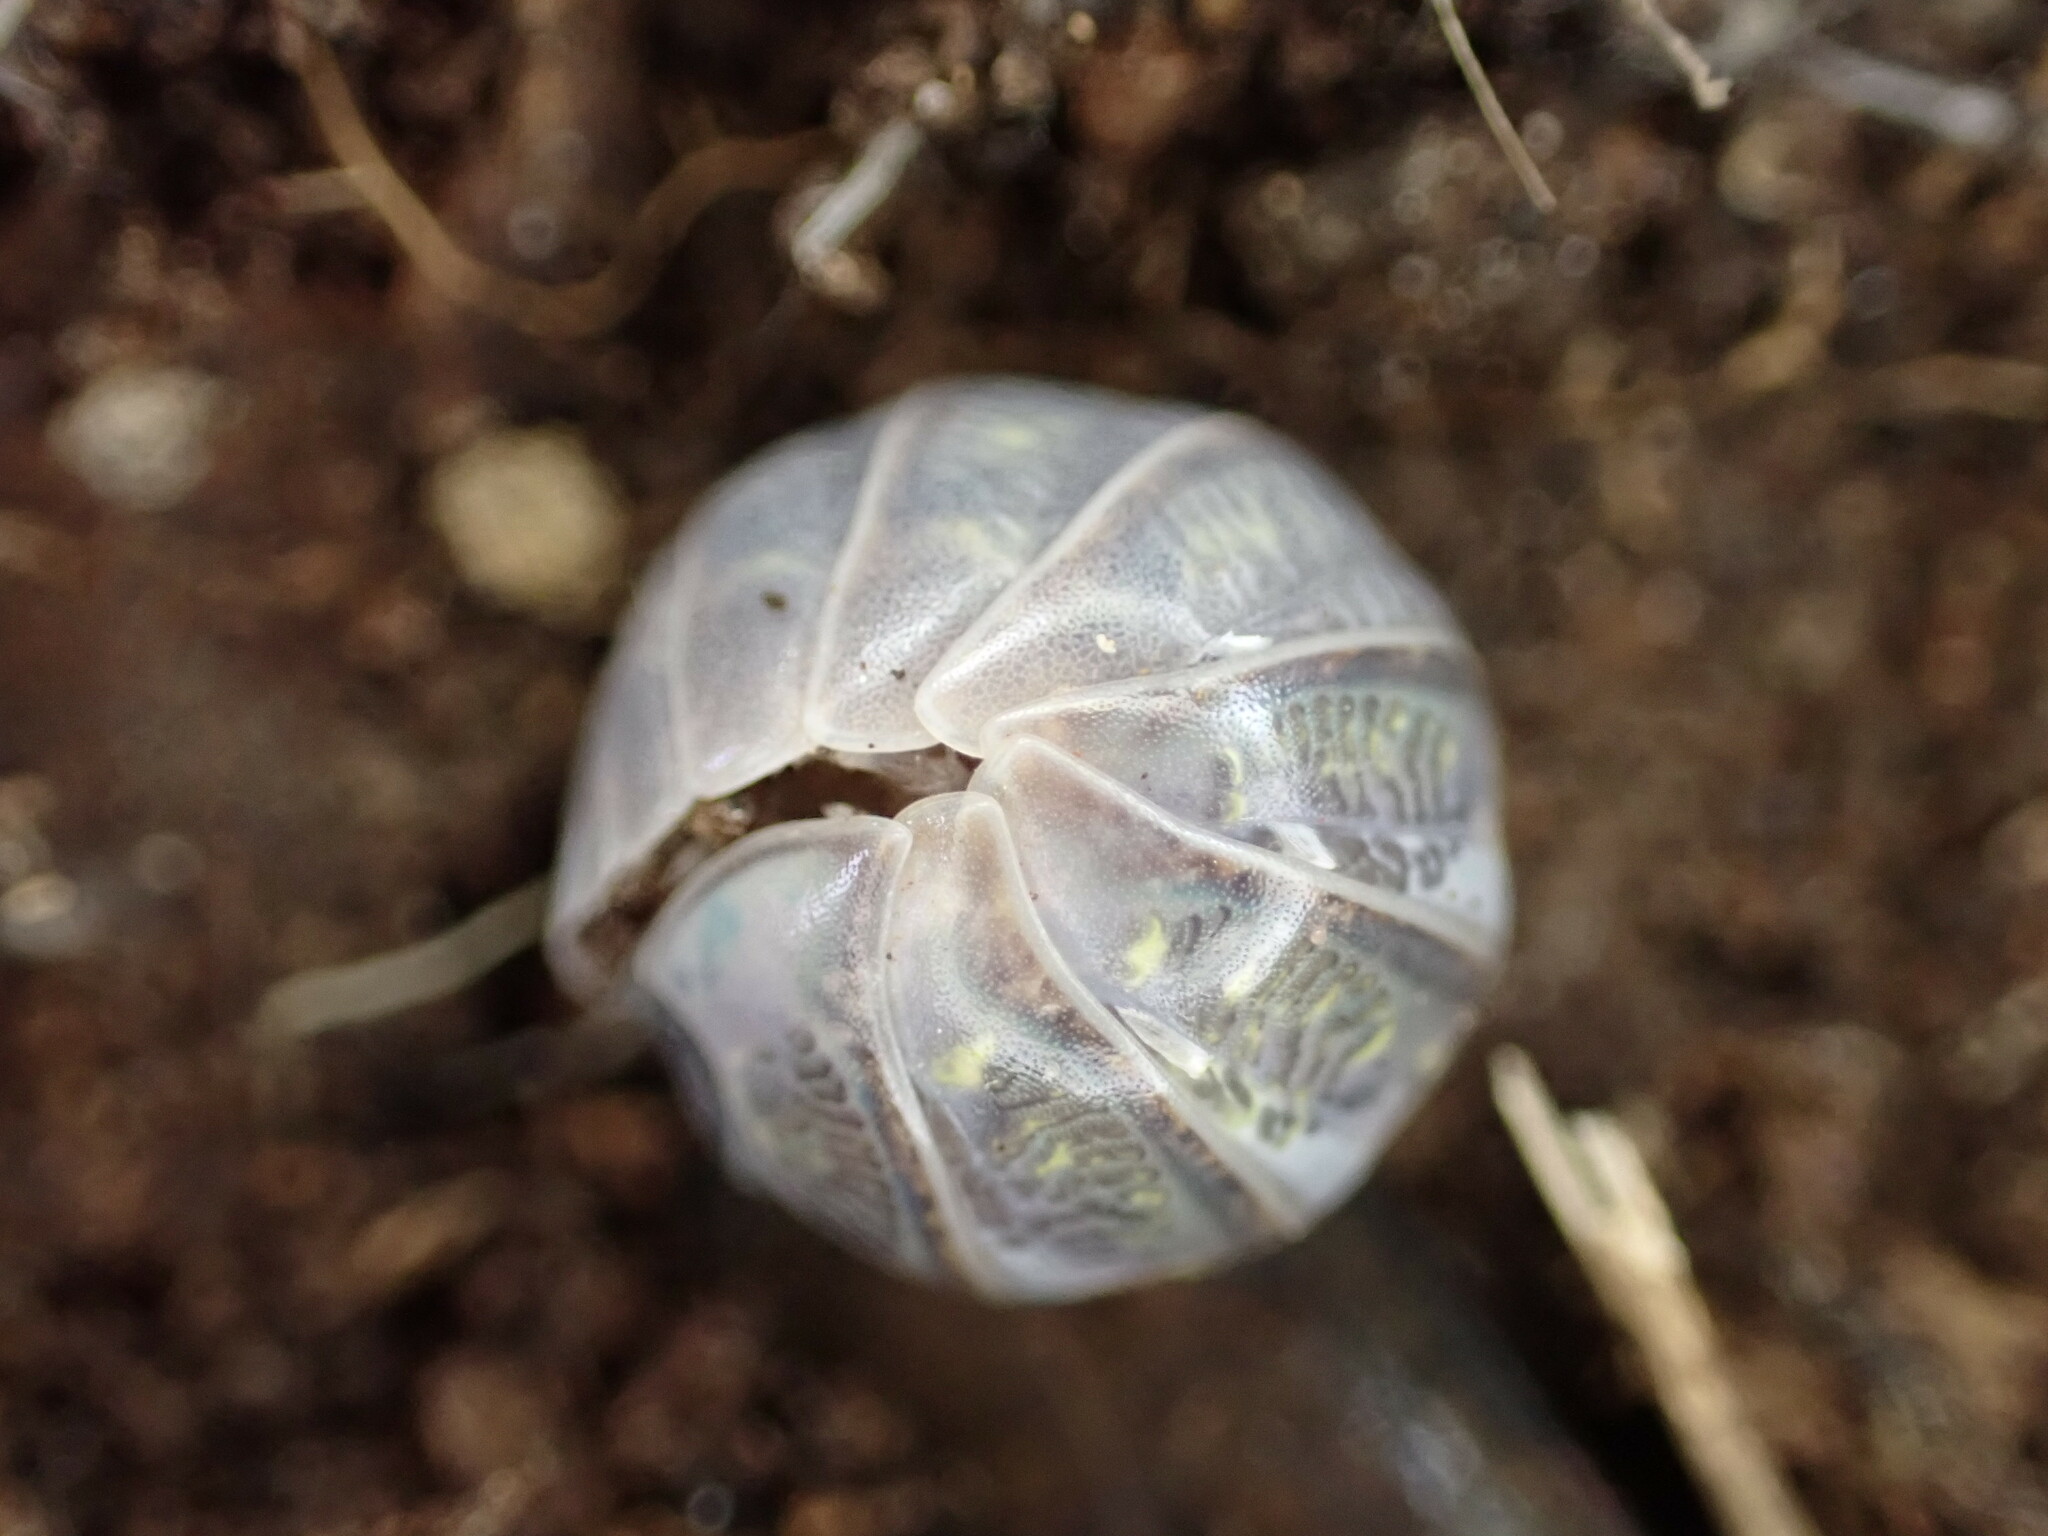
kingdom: Animalia
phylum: Arthropoda
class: Malacostraca
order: Isopoda
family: Armadillidiidae
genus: Armadillidium
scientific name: Armadillidium vulgare
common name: Common pill woodlouse
